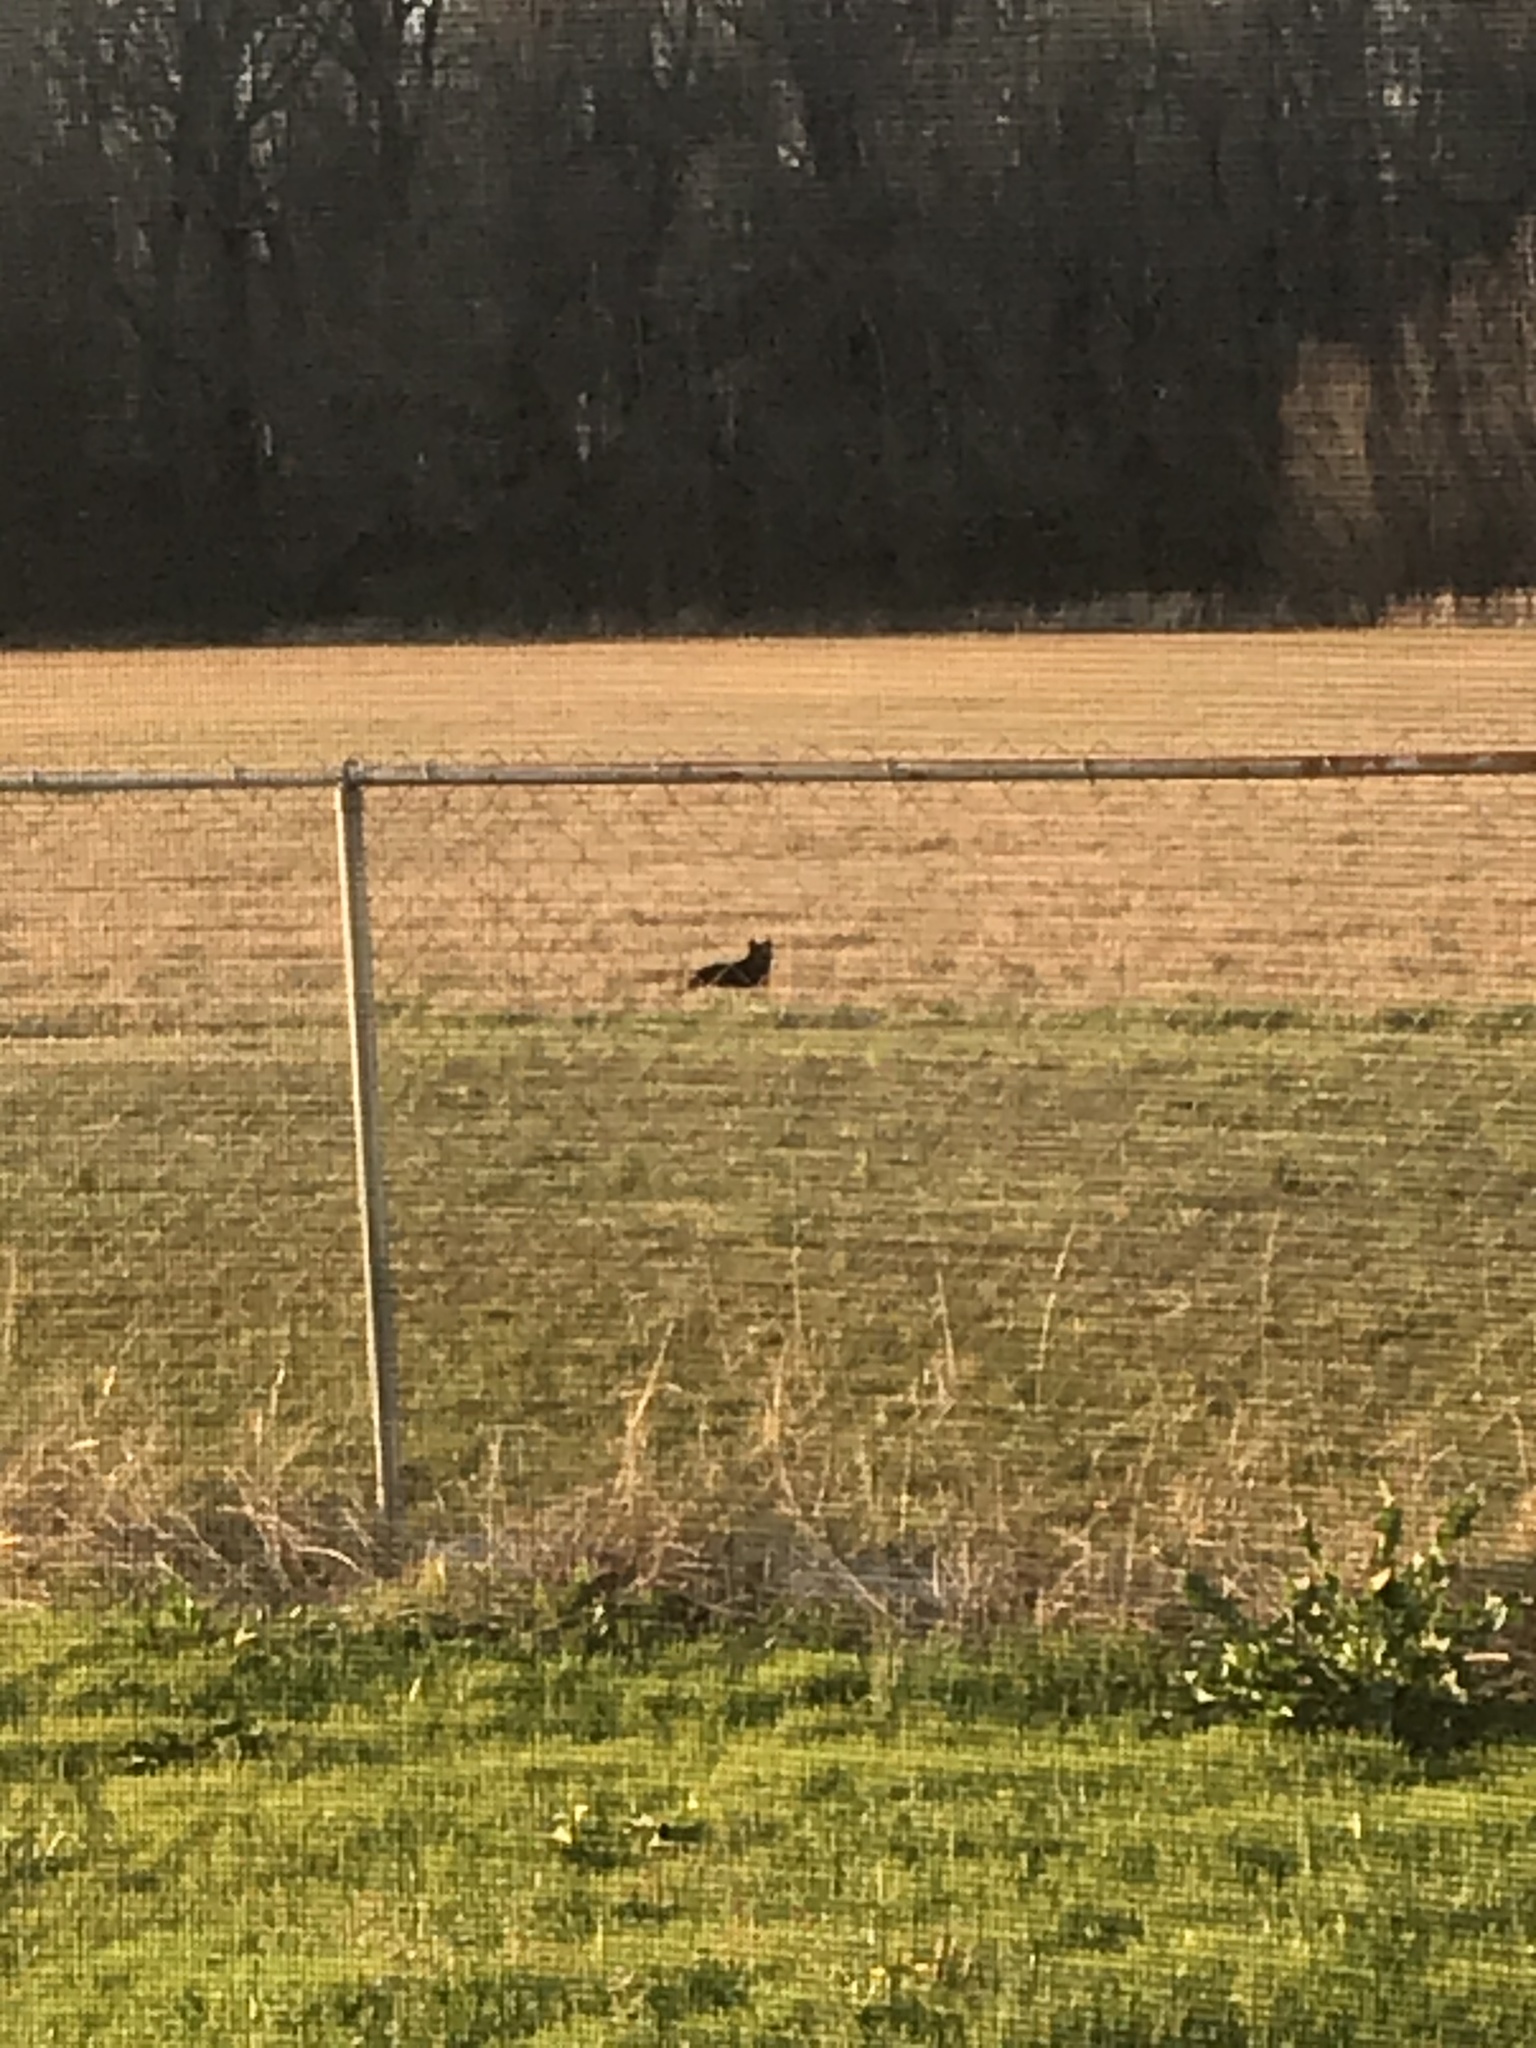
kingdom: Animalia
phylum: Chordata
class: Mammalia
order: Carnivora
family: Felidae
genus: Felis
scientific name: Felis catus
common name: Domestic cat
